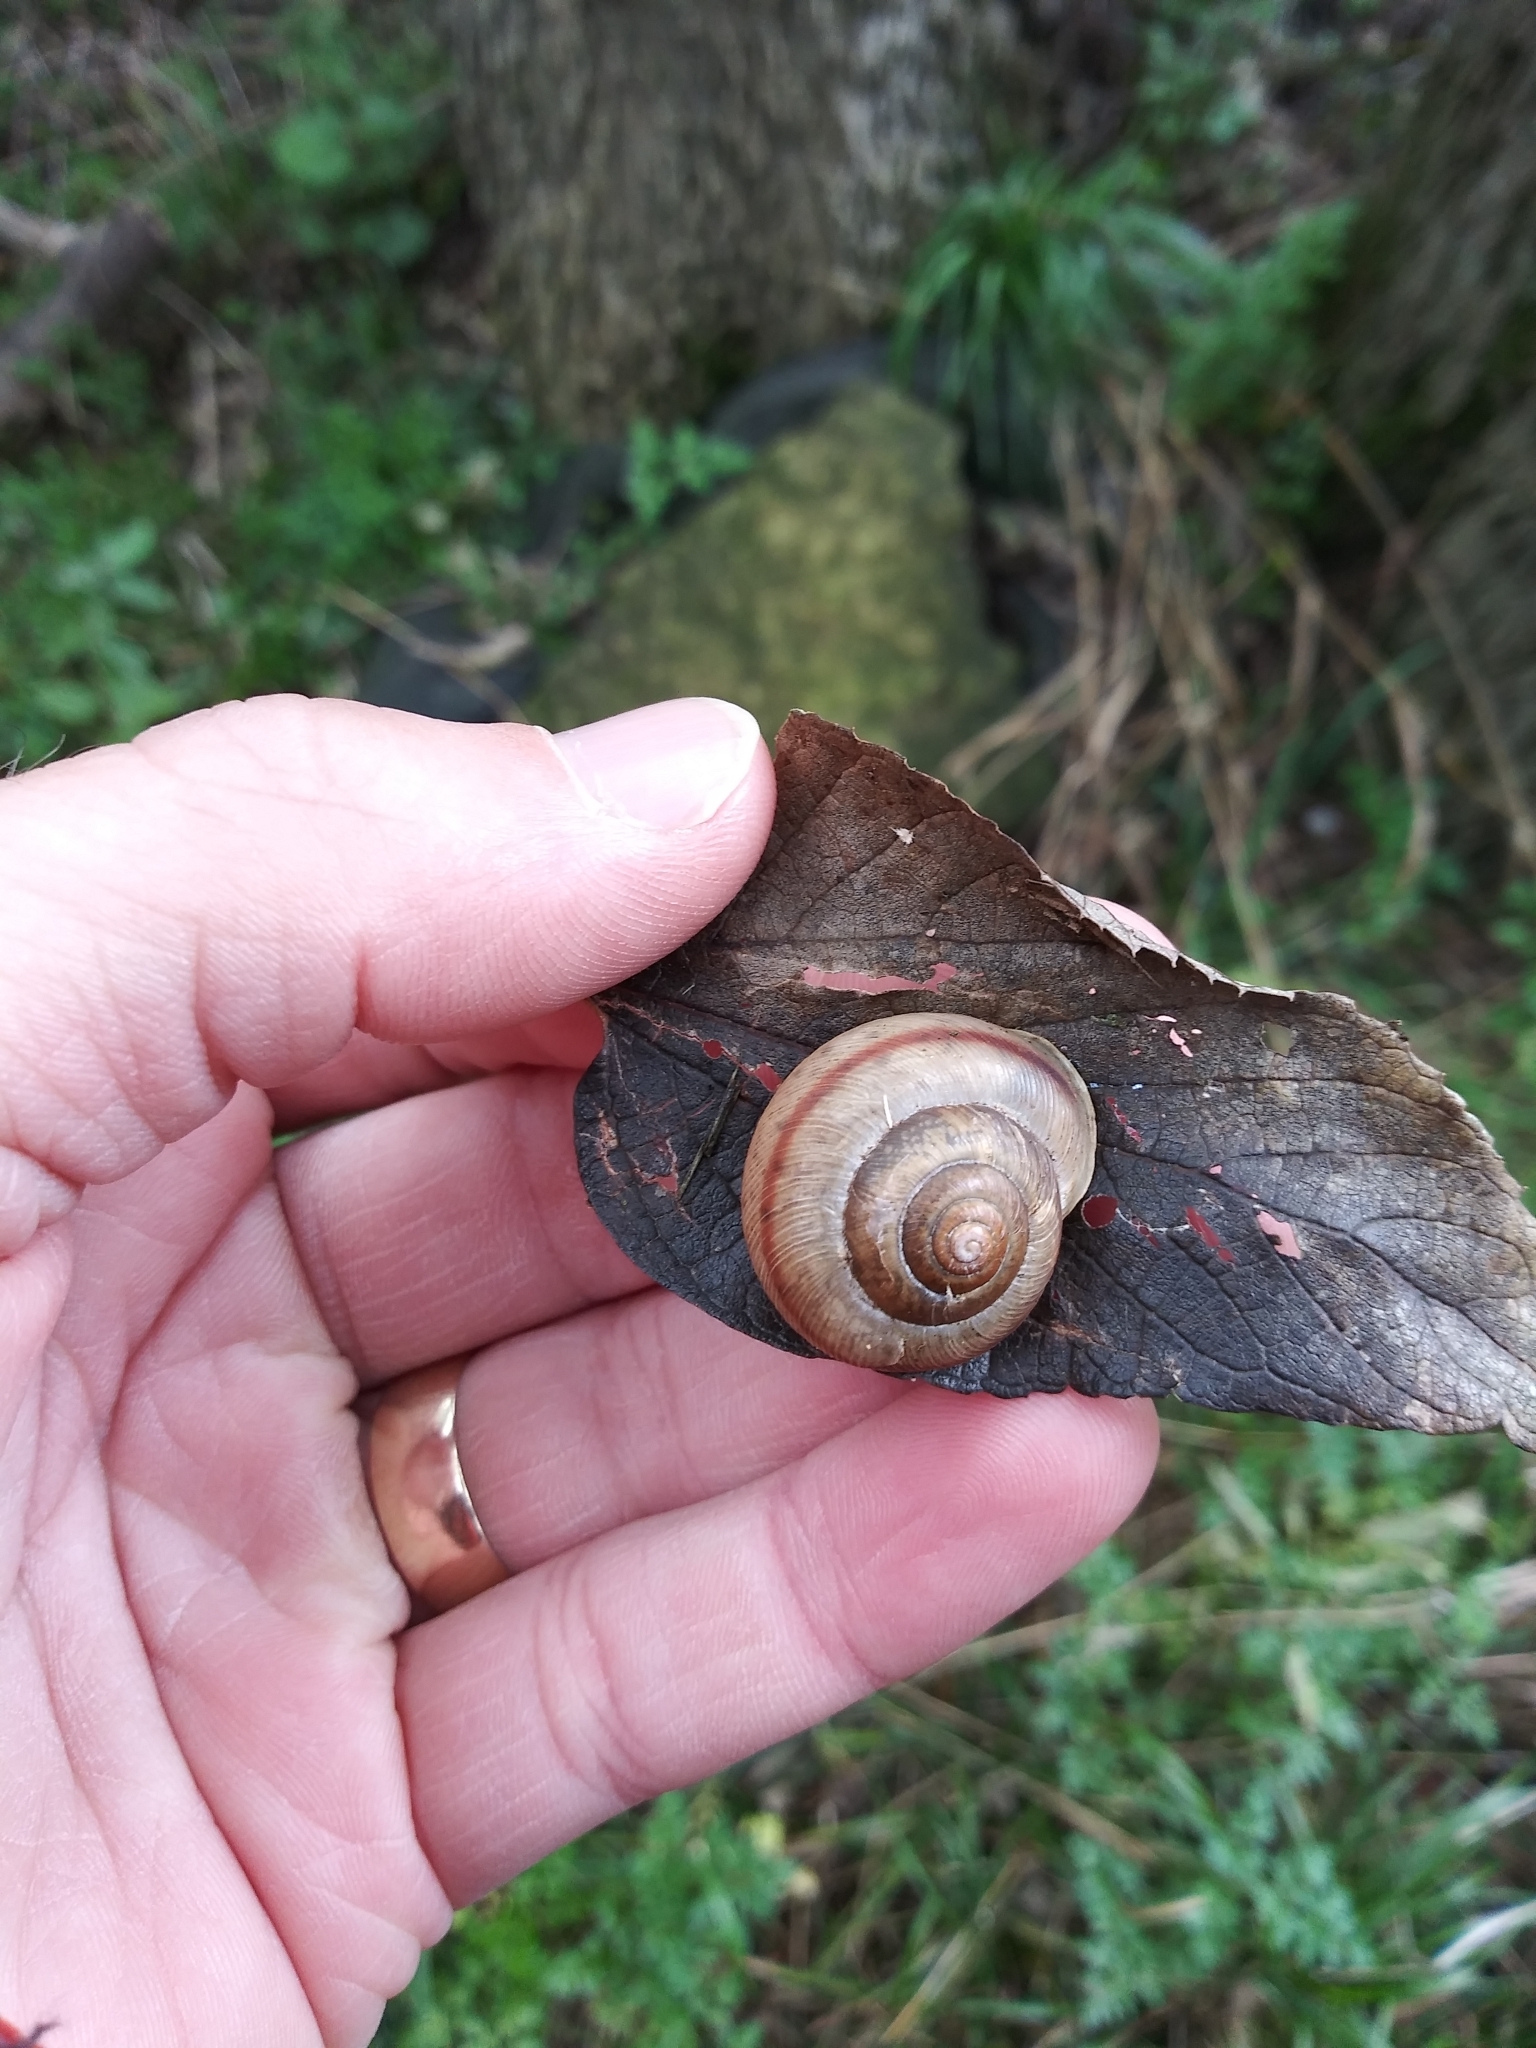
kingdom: Animalia
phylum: Mollusca
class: Gastropoda
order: Stylommatophora
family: Polygyridae
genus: Allogona
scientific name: Allogona profunda
